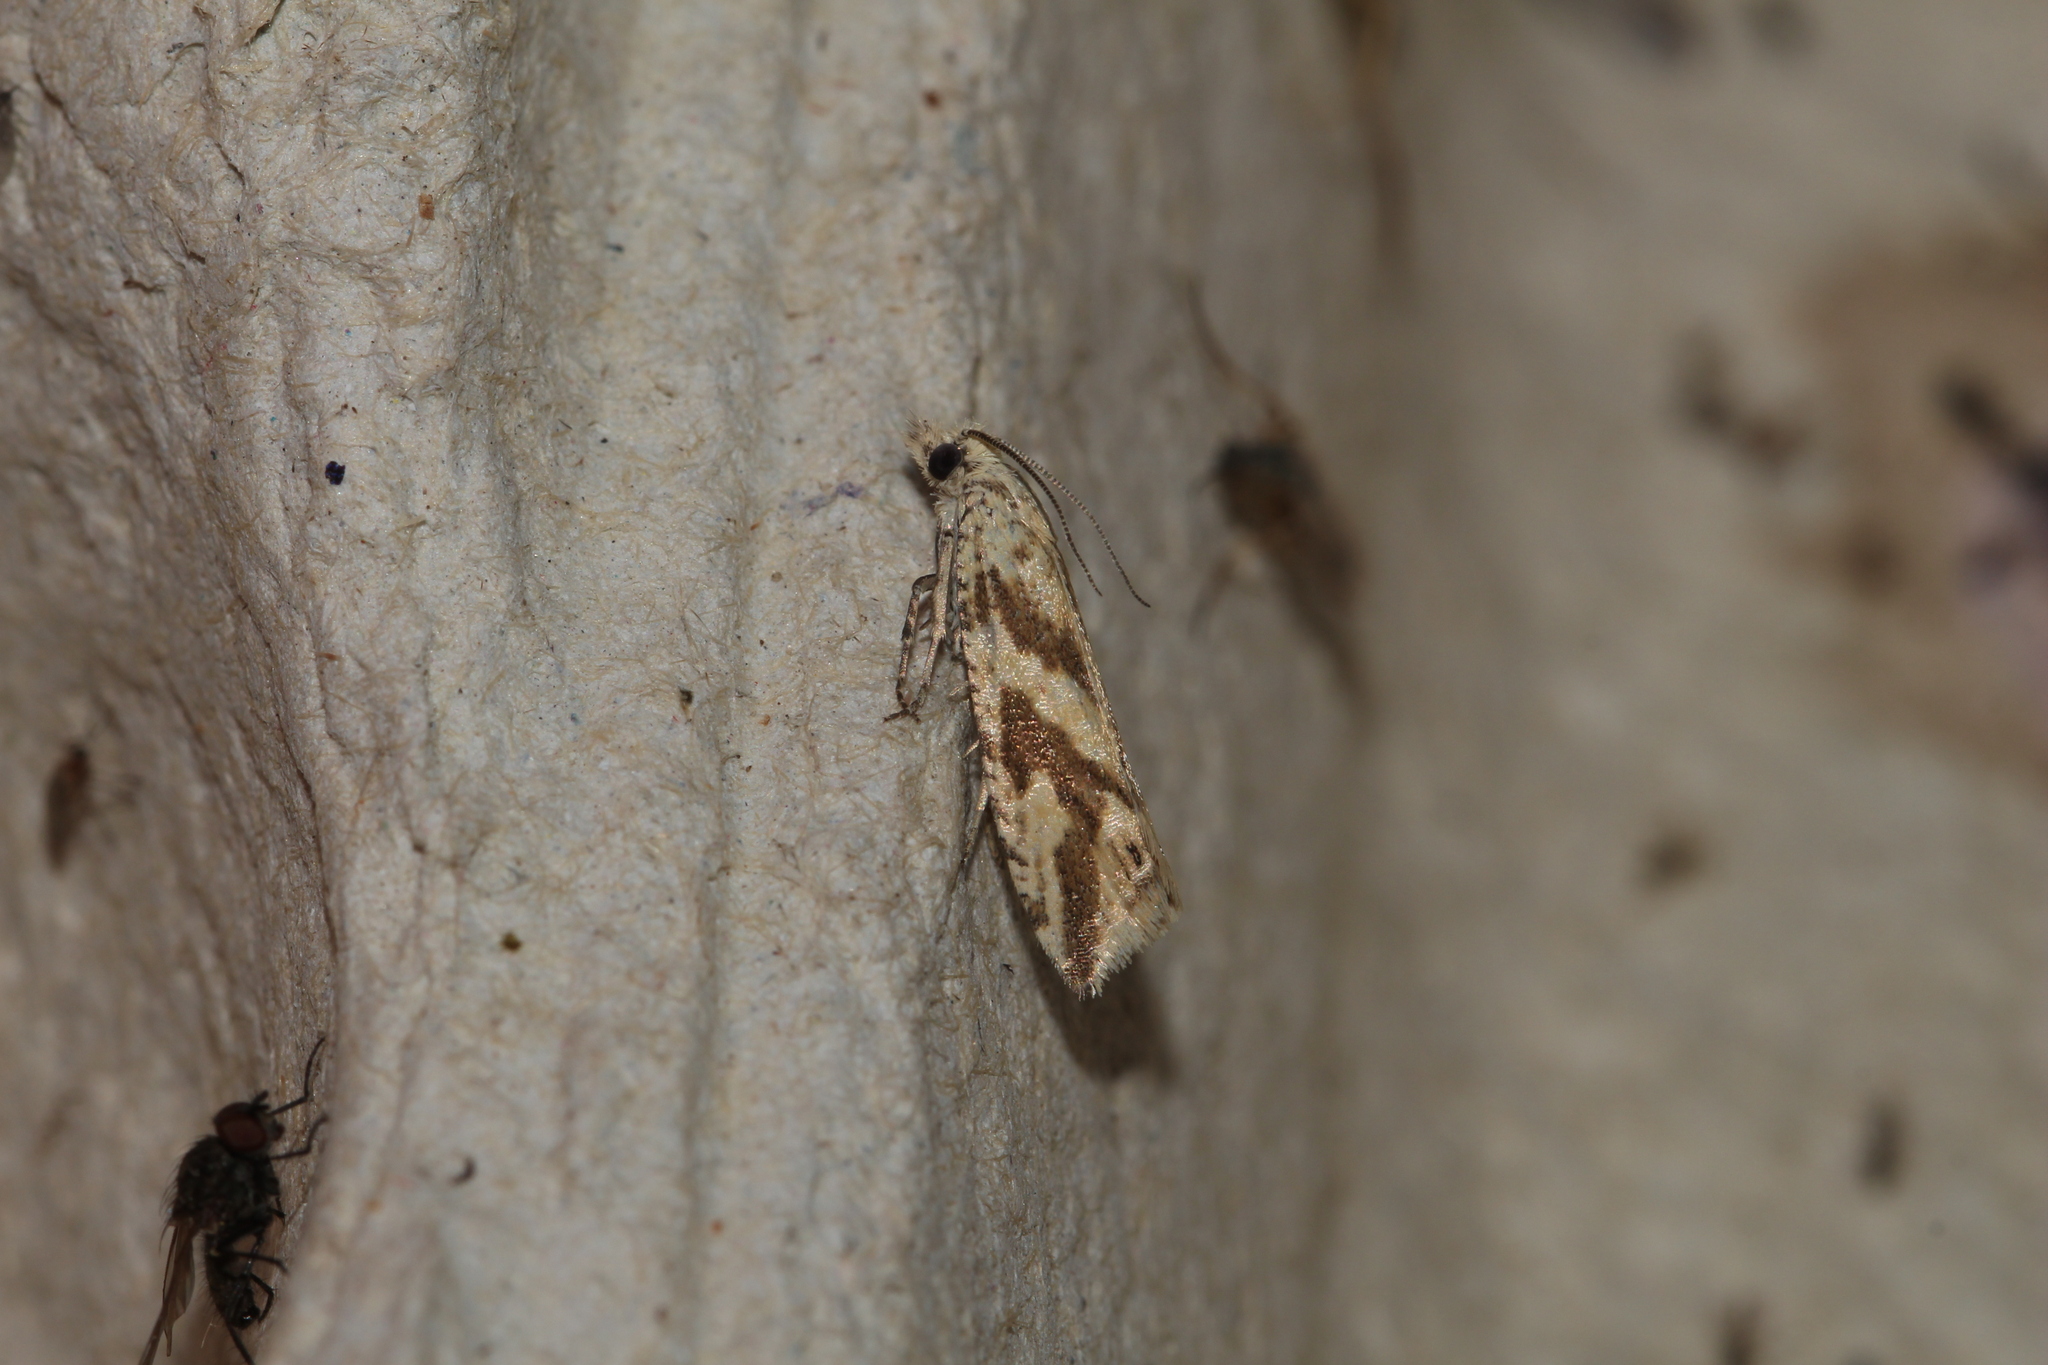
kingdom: Animalia
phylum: Arthropoda
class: Insecta
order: Lepidoptera
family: Tortricidae
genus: Thiodia
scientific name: Thiodia citrana
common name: Lemon bell
